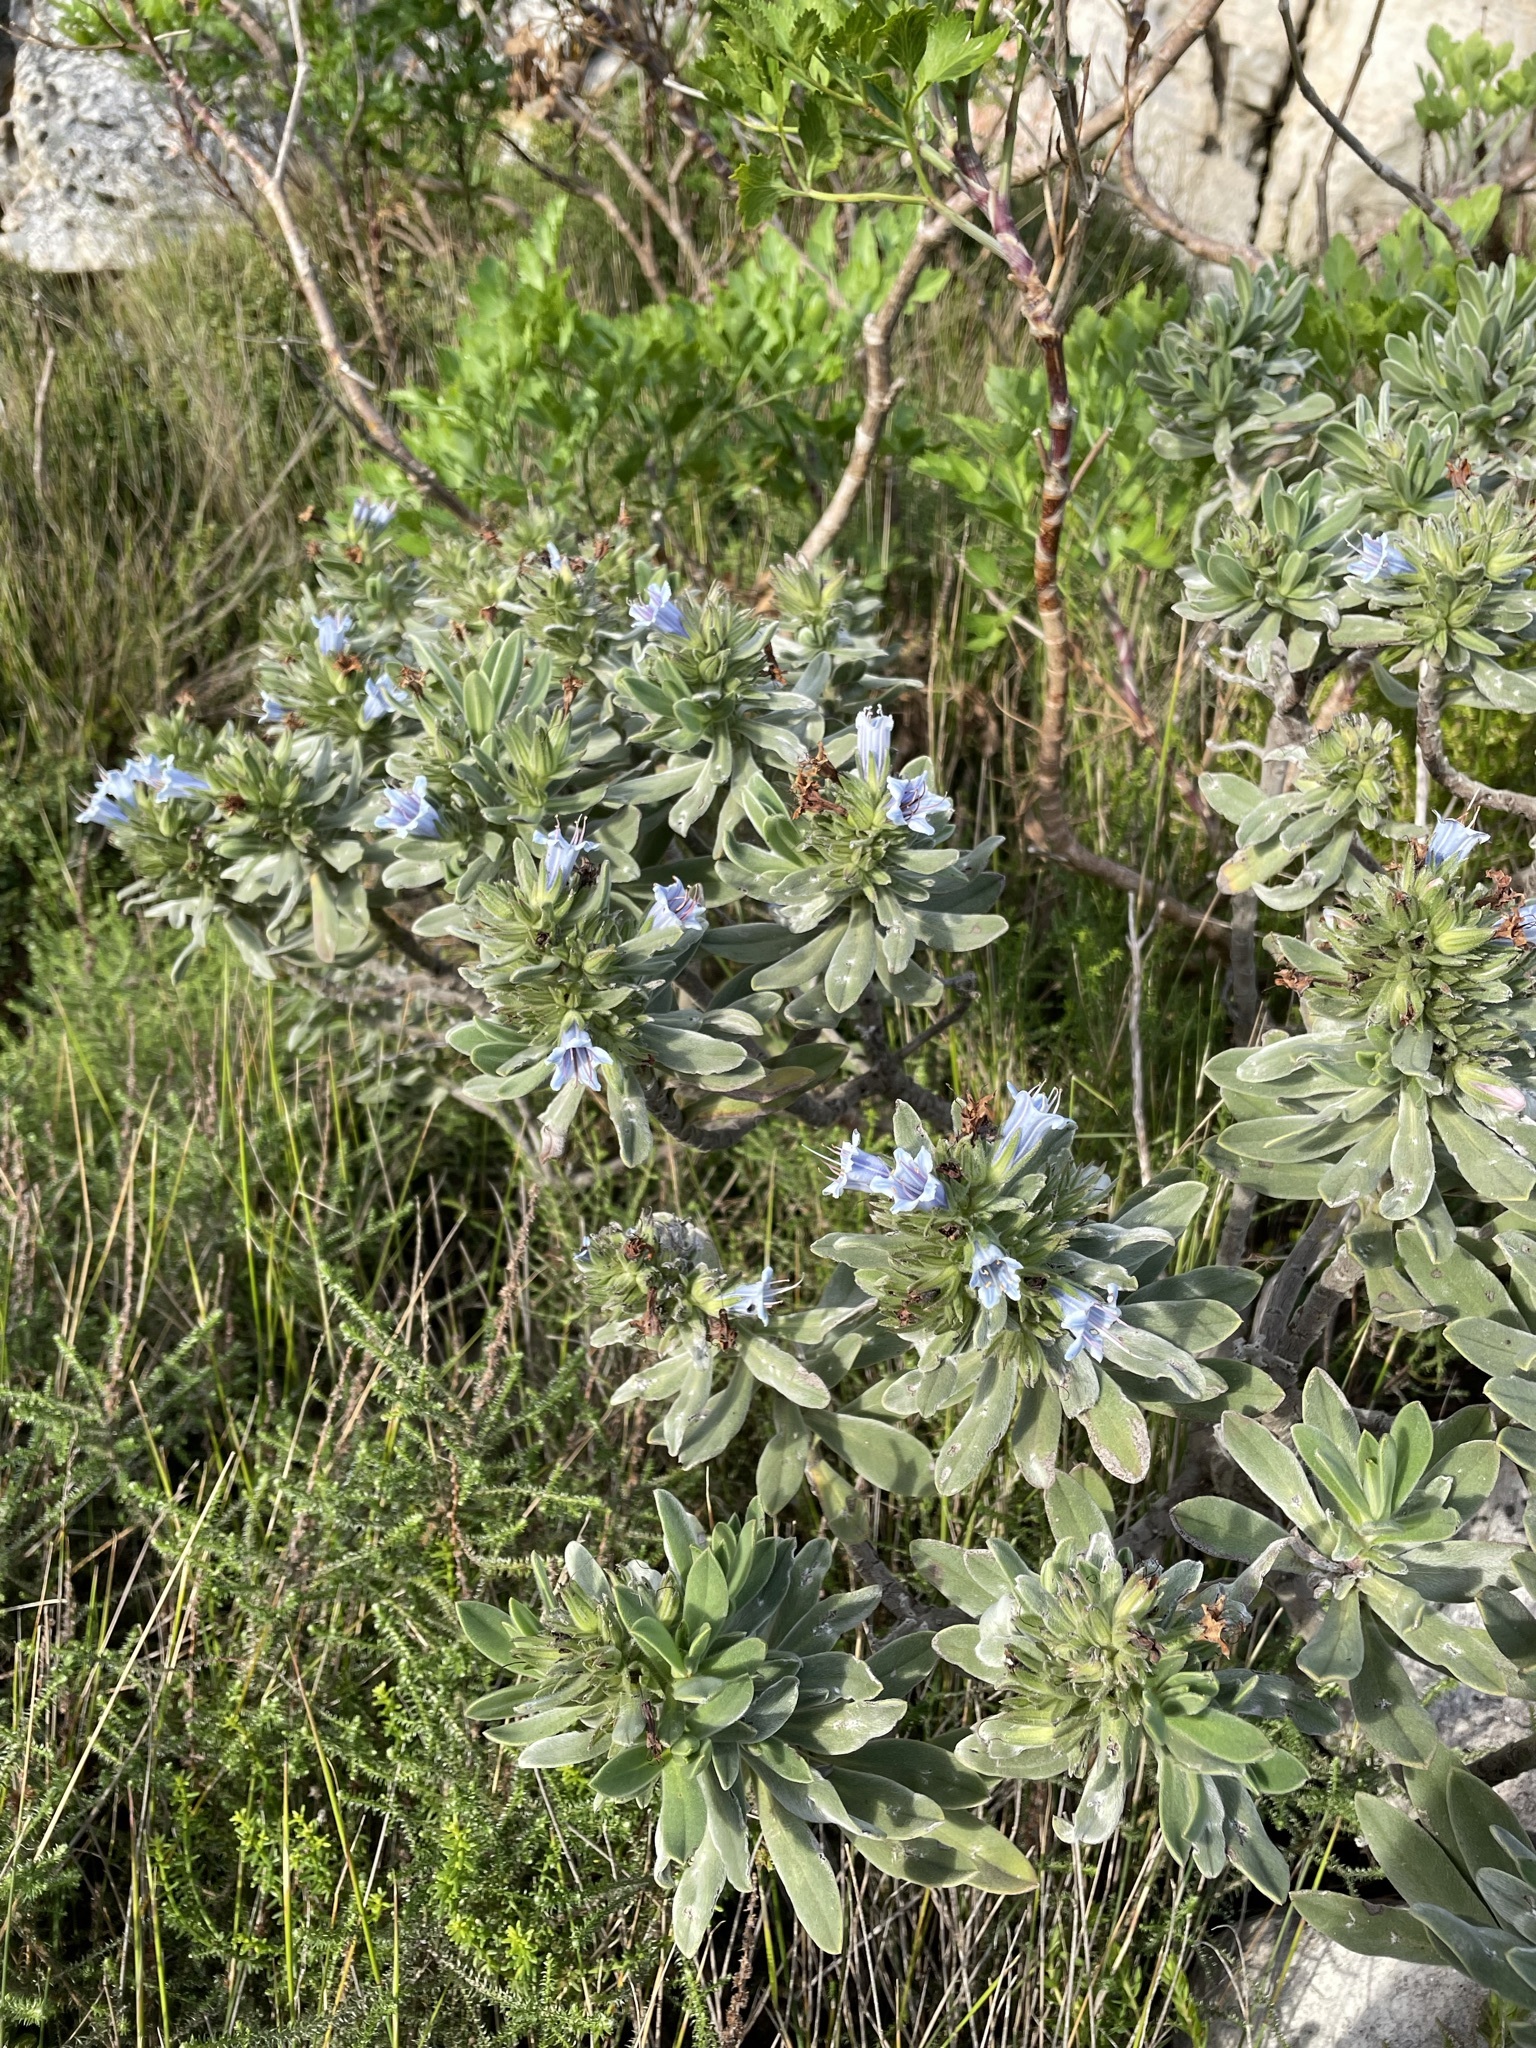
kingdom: Plantae
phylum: Tracheophyta
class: Magnoliopsida
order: Boraginales
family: Boraginaceae
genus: Lobostemon
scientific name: Lobostemon montanus
